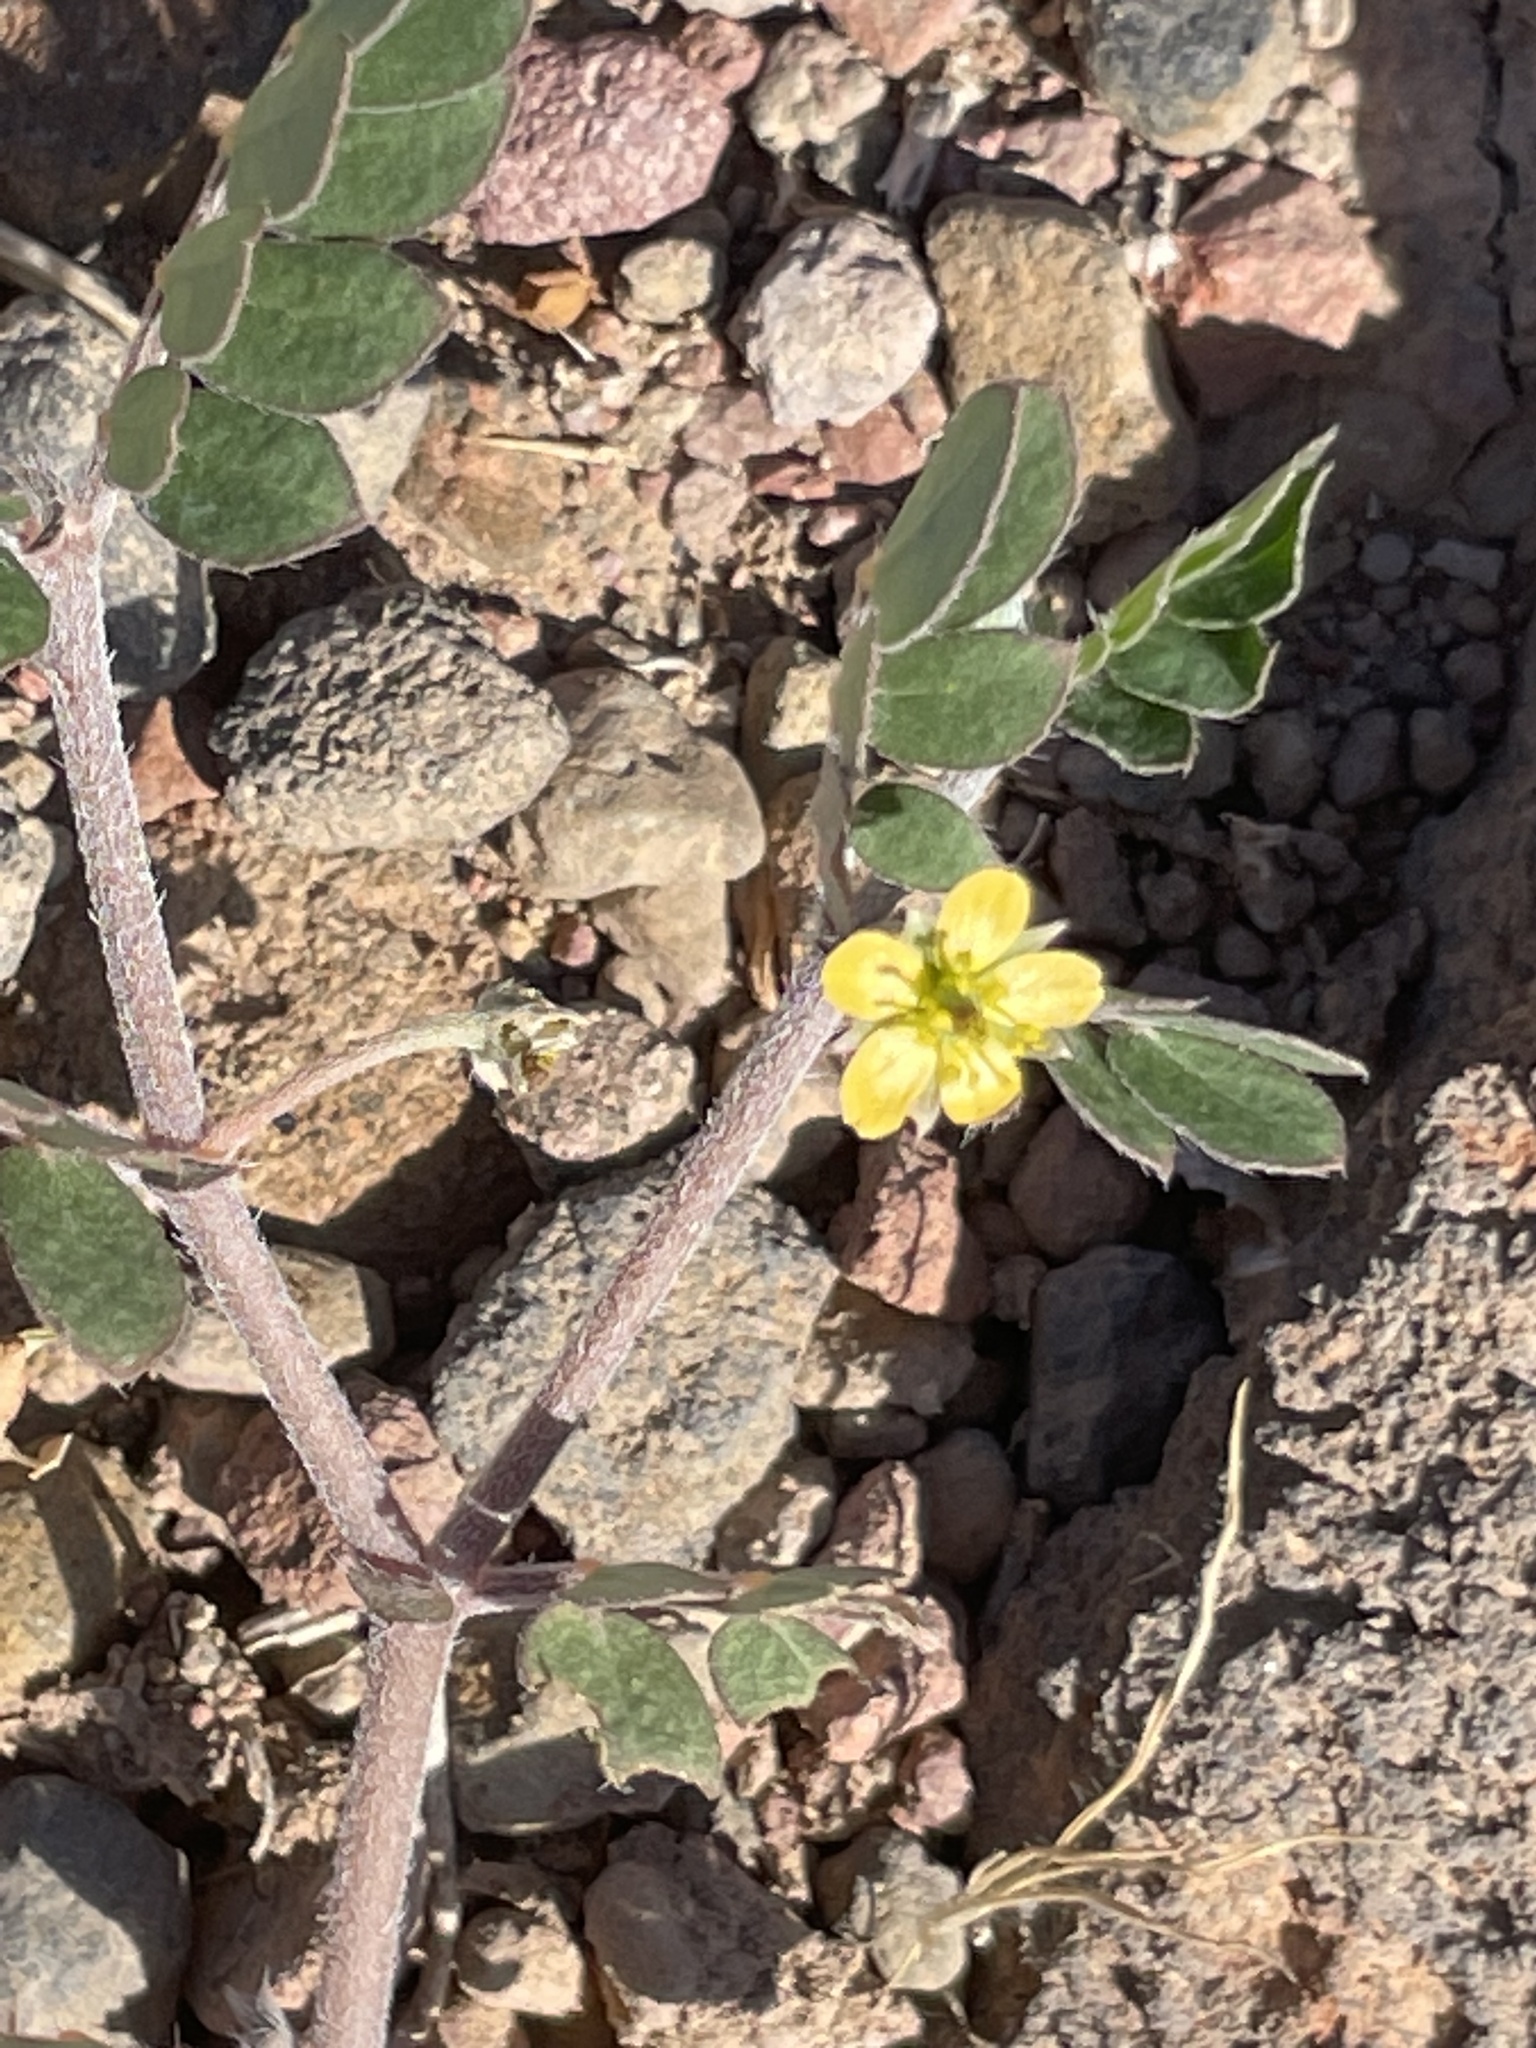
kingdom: Plantae
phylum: Tracheophyta
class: Magnoliopsida
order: Zygophyllales
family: Zygophyllaceae
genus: Tribulus
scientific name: Tribulus terrestris
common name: Puncturevine
